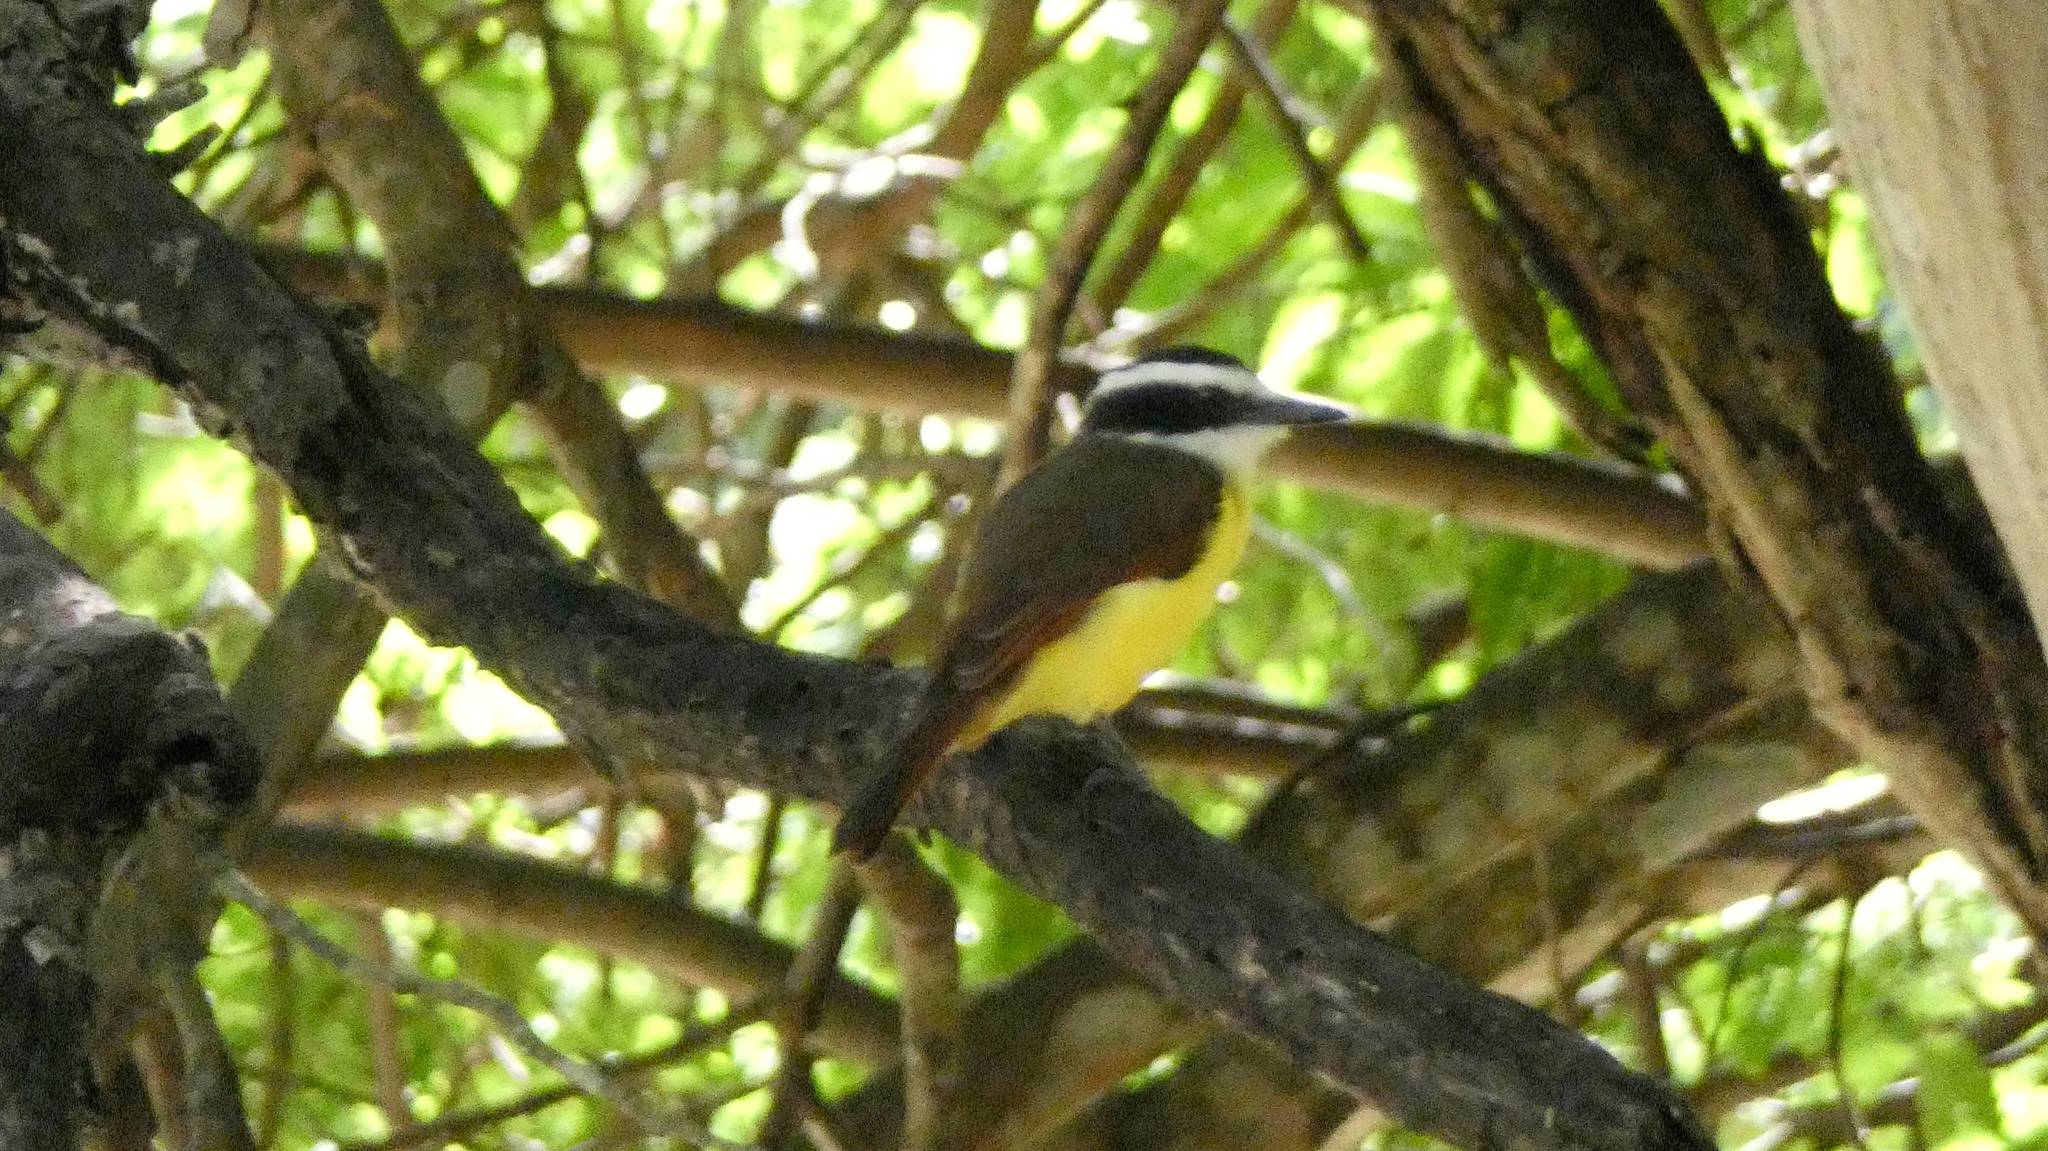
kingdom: Animalia
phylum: Chordata
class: Aves
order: Passeriformes
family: Tyrannidae
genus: Pitangus
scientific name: Pitangus sulphuratus
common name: Great kiskadee
